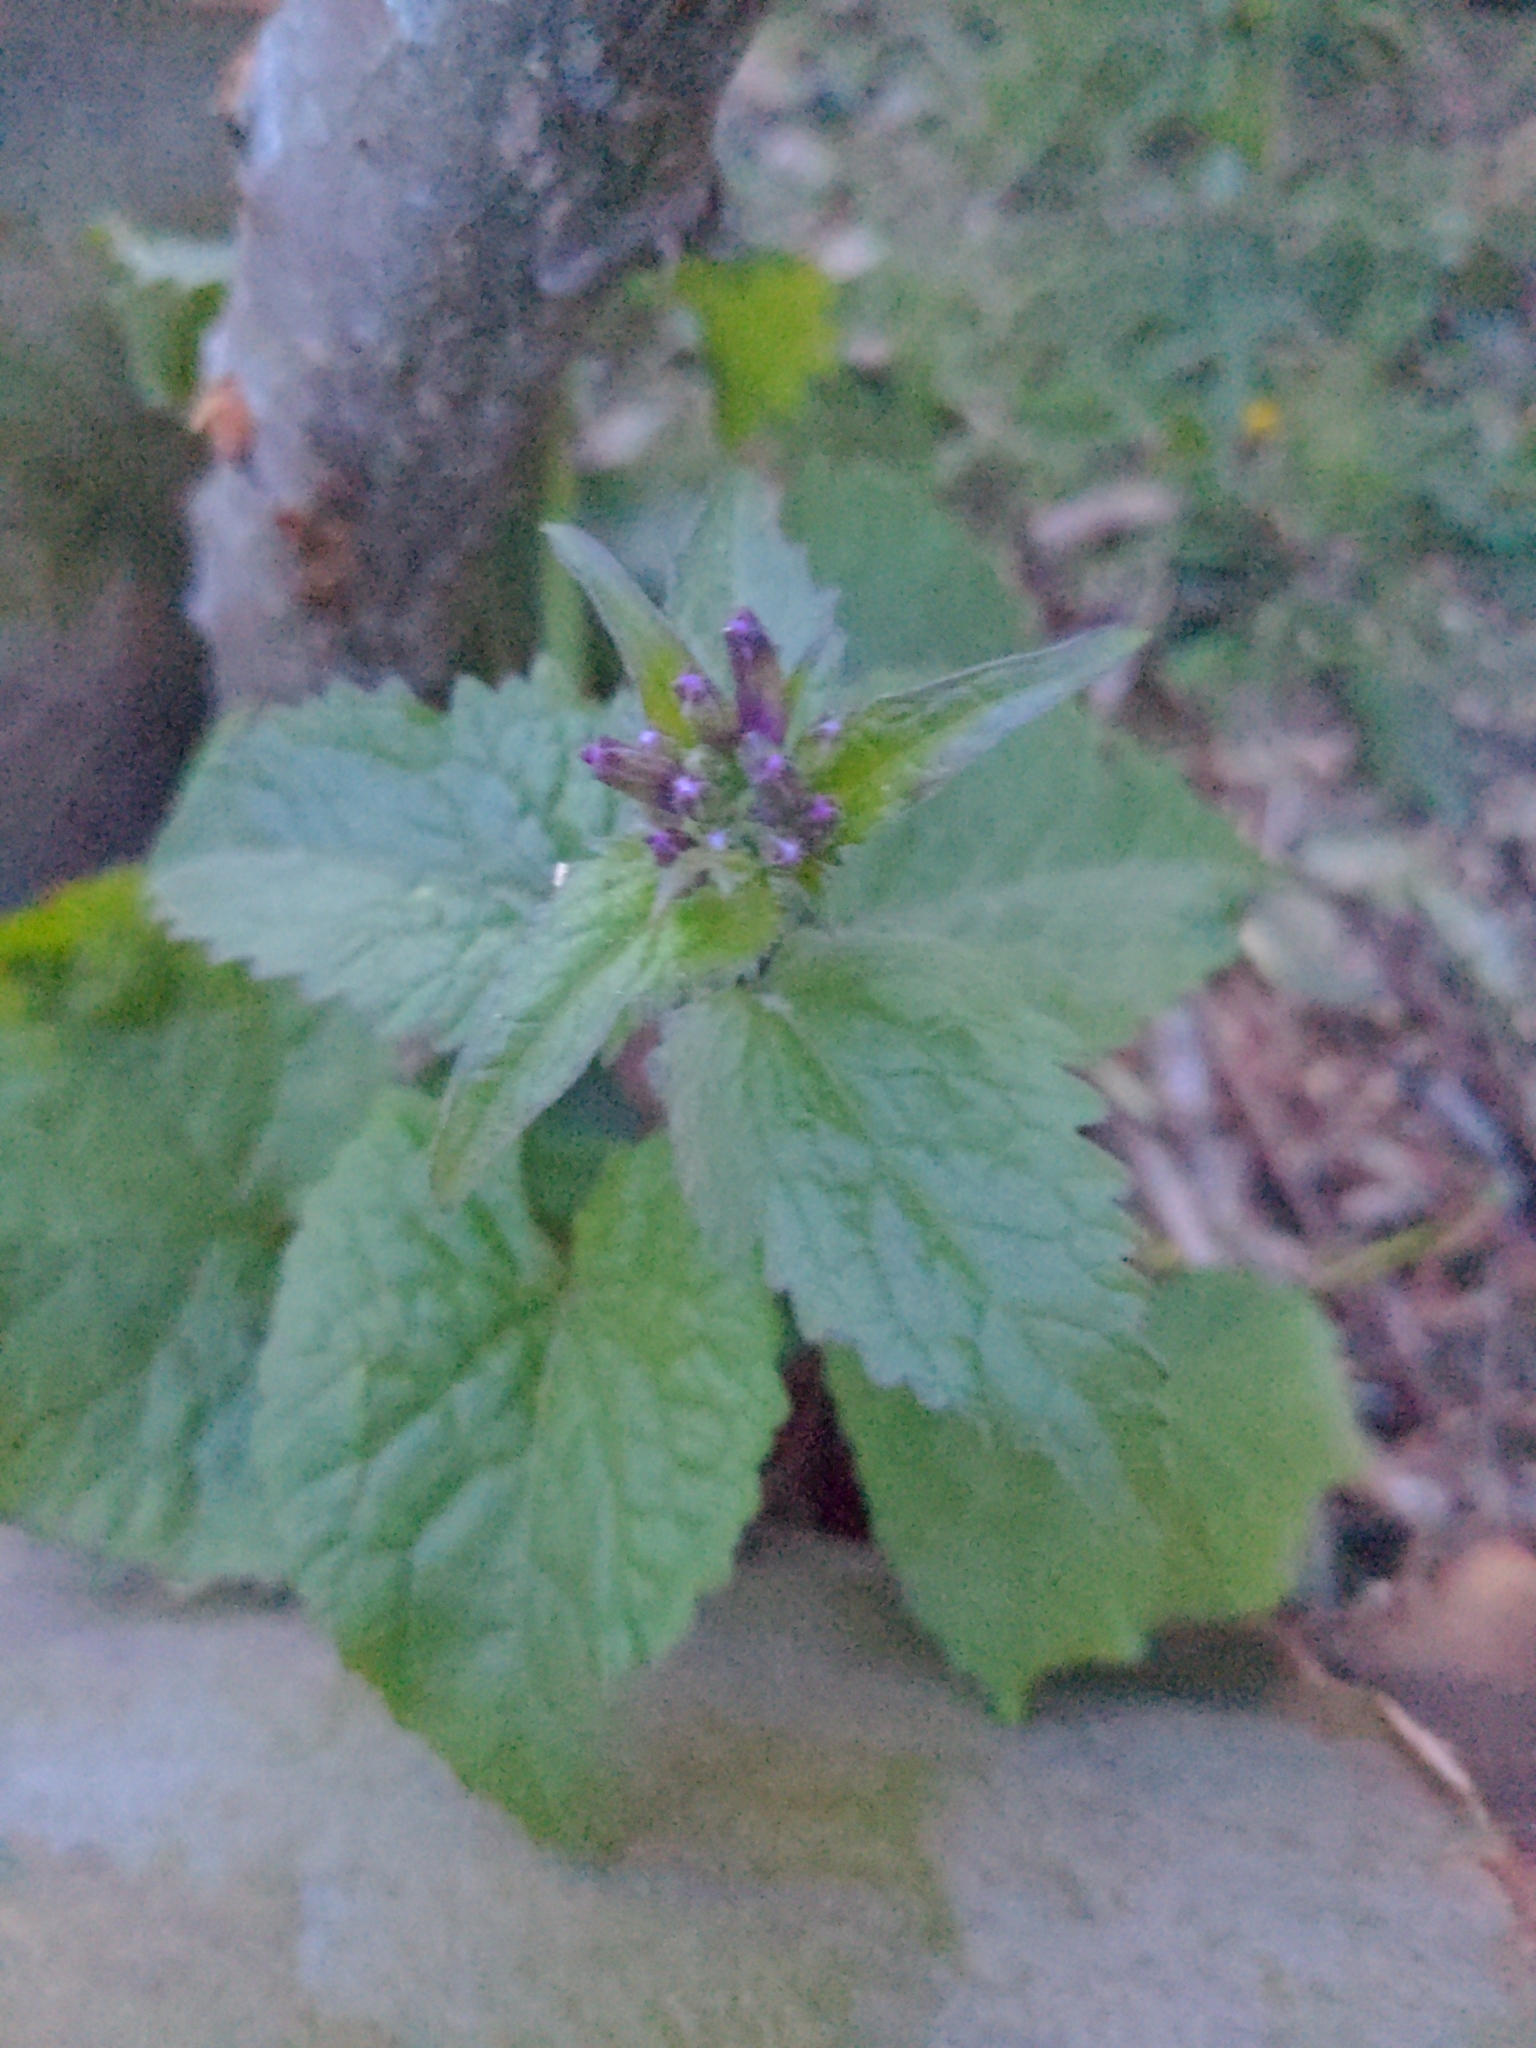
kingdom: Plantae
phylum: Tracheophyta
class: Magnoliopsida
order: Brassicales
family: Brassicaceae
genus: Lunaria
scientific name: Lunaria annua
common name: Honesty
